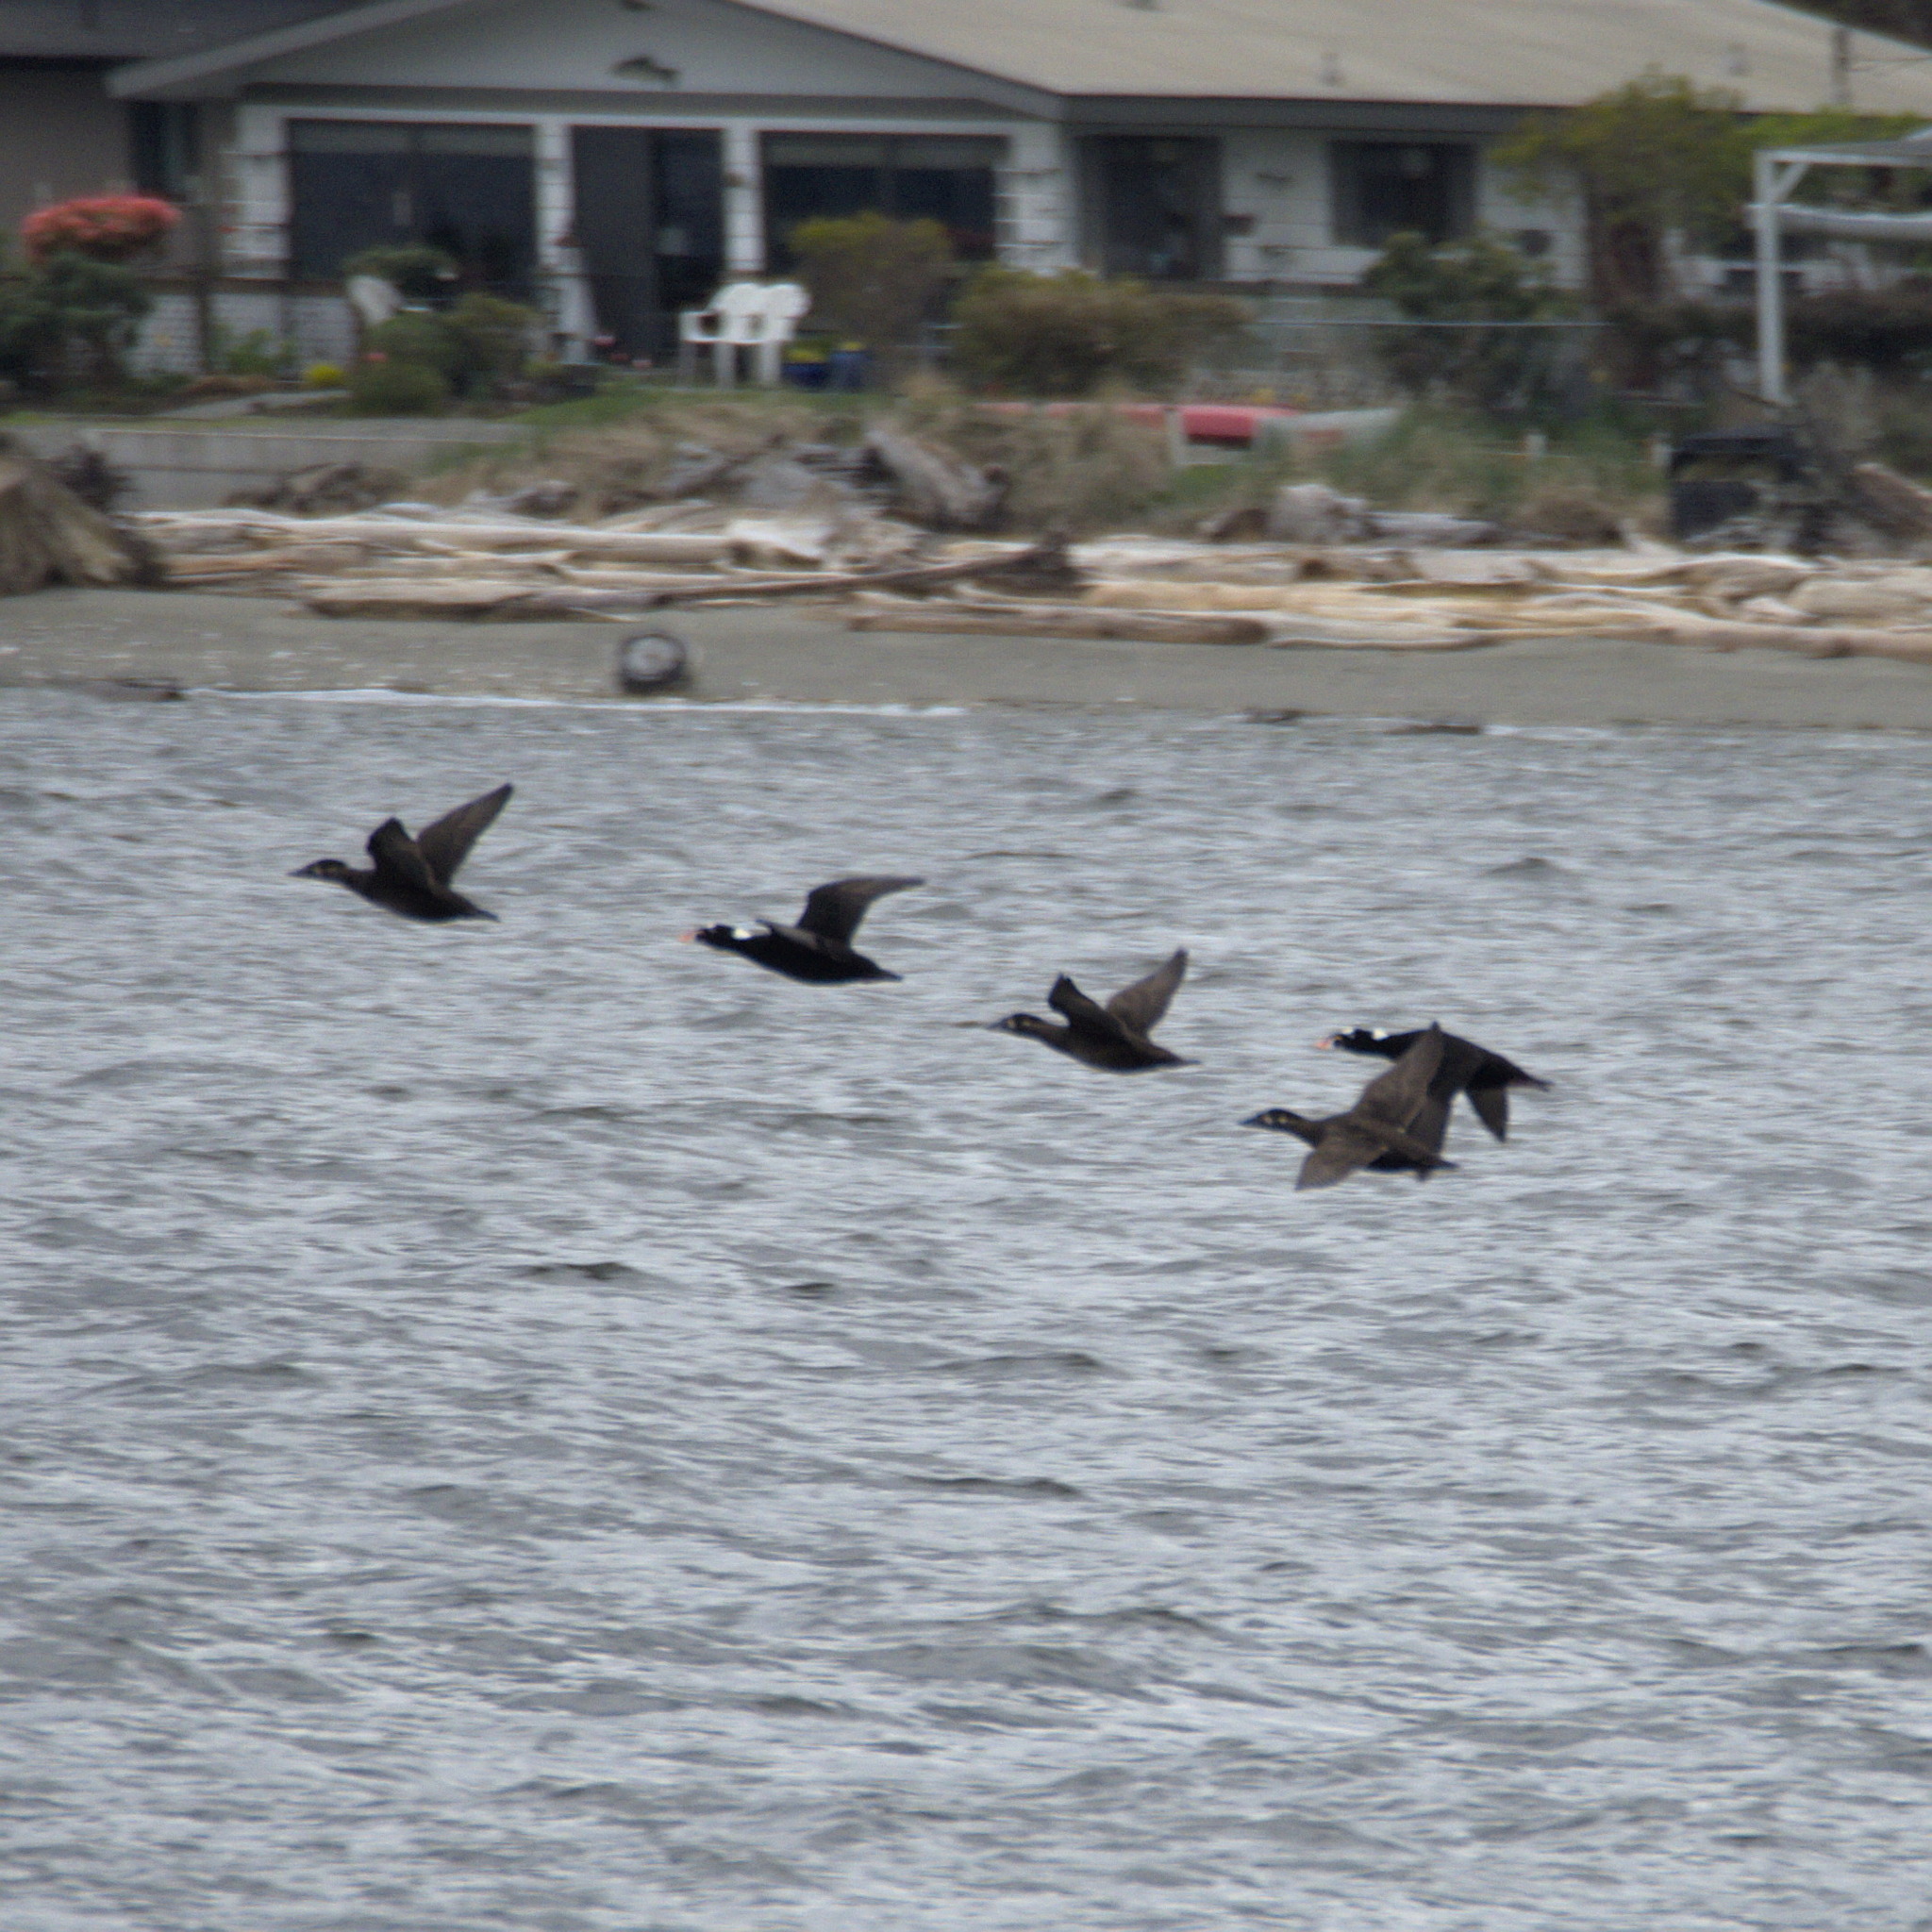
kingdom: Animalia
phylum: Chordata
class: Aves
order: Anseriformes
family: Anatidae
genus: Melanitta
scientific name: Melanitta perspicillata
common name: Surf scoter
